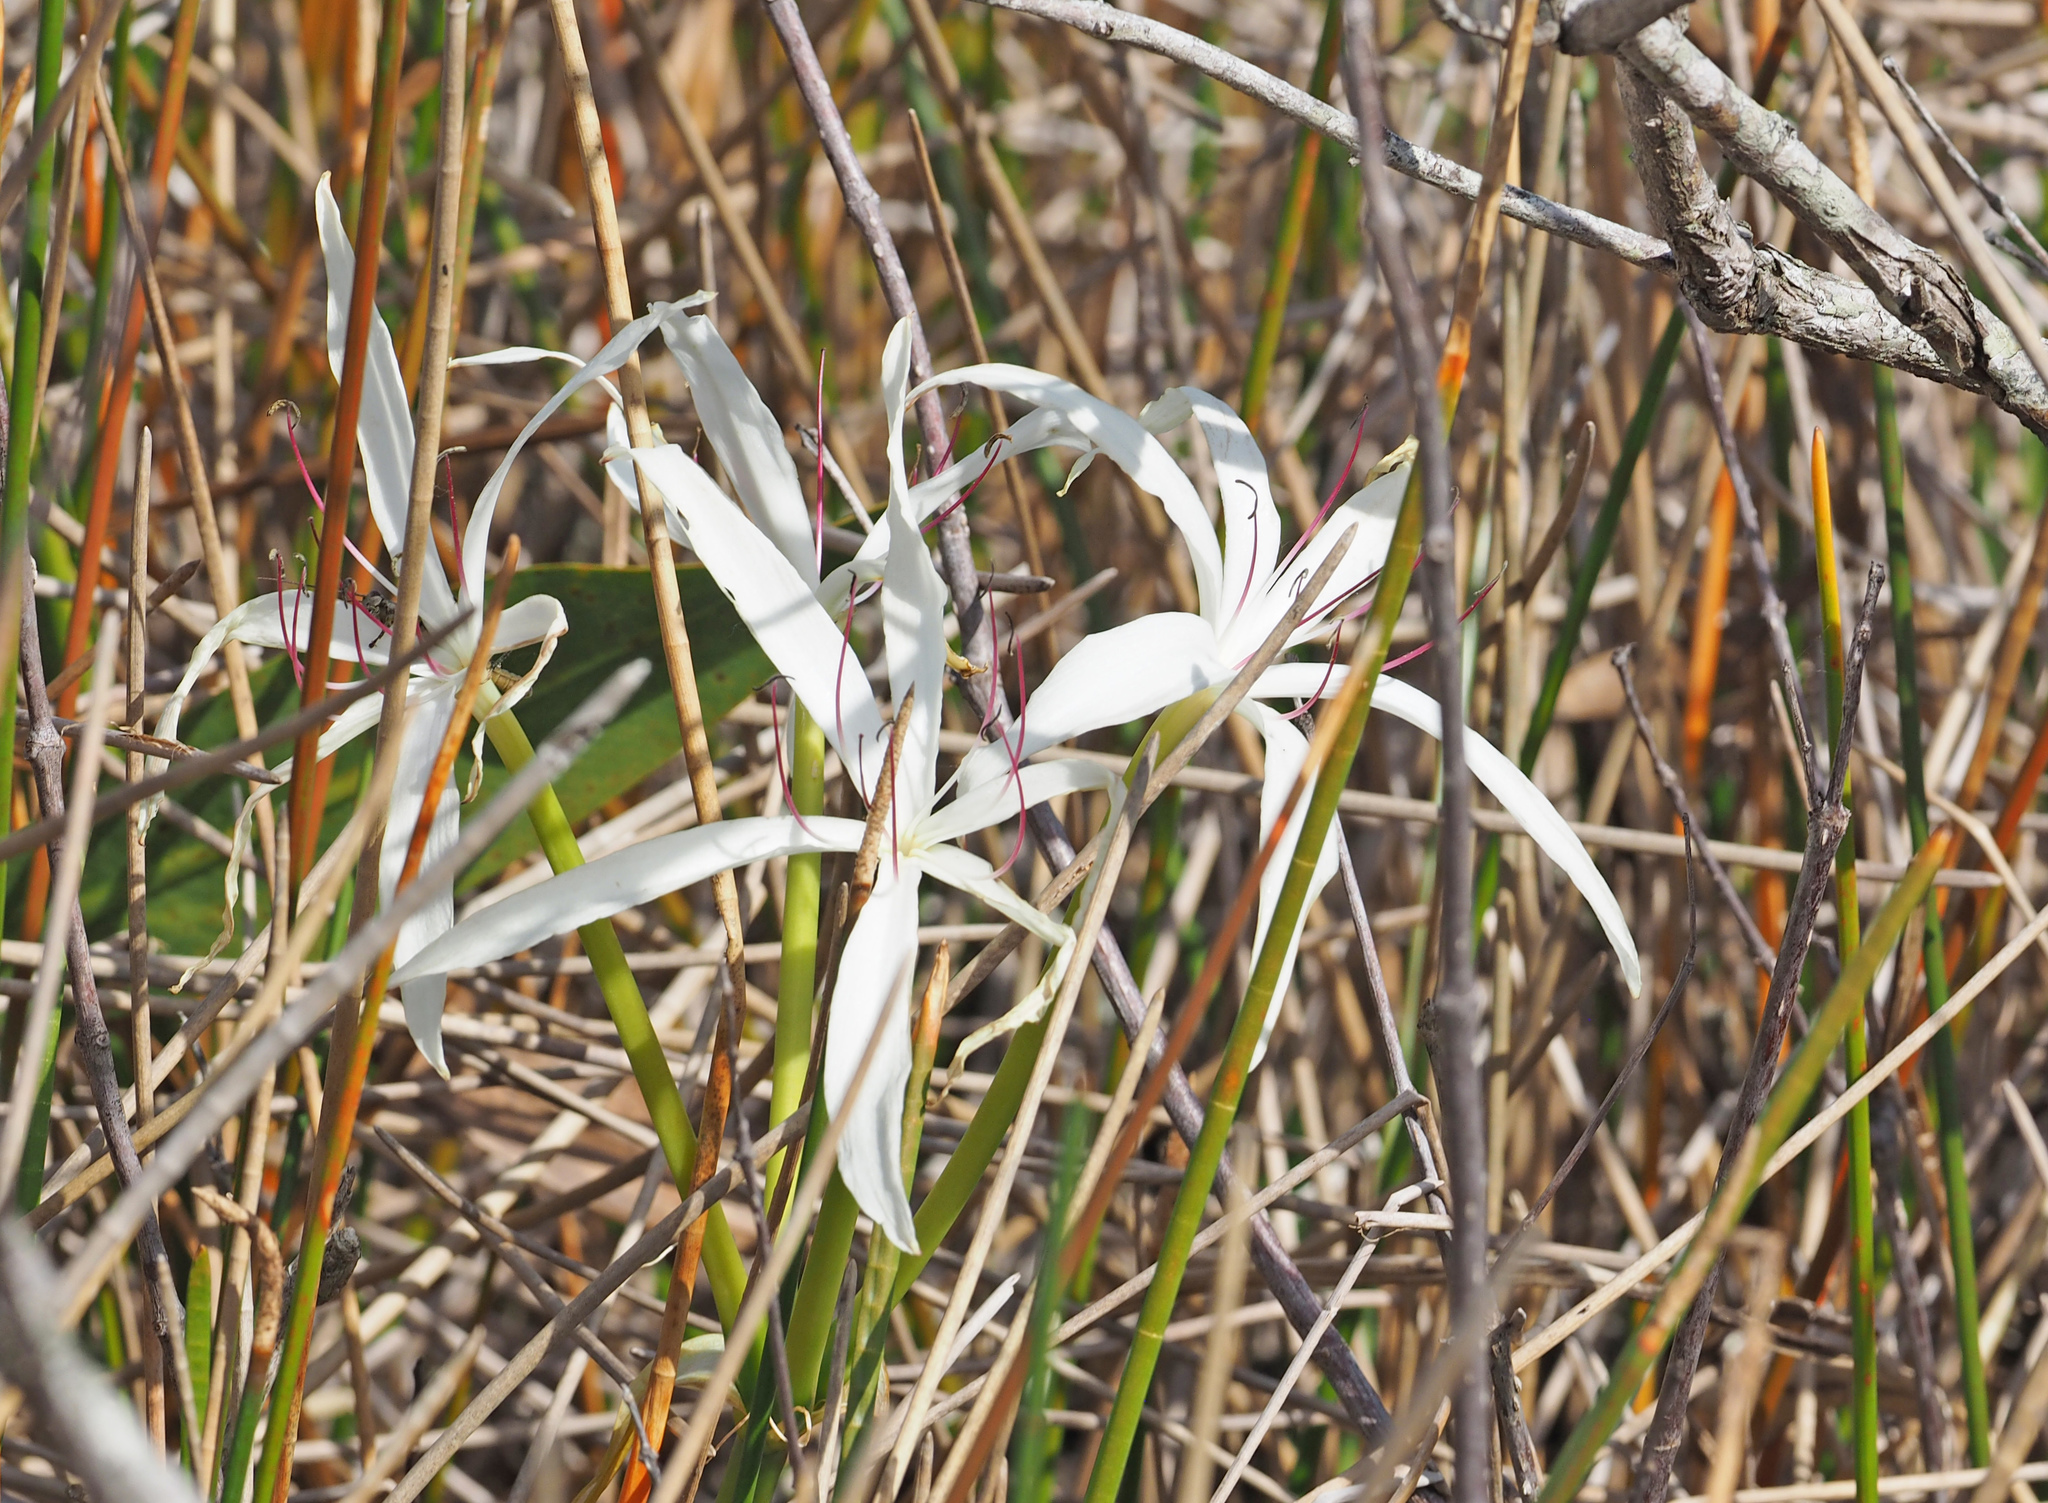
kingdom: Plantae
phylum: Tracheophyta
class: Liliopsida
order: Asparagales
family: Amaryllidaceae
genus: Crinum
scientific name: Crinum americanum
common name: Florida swamp-lily
